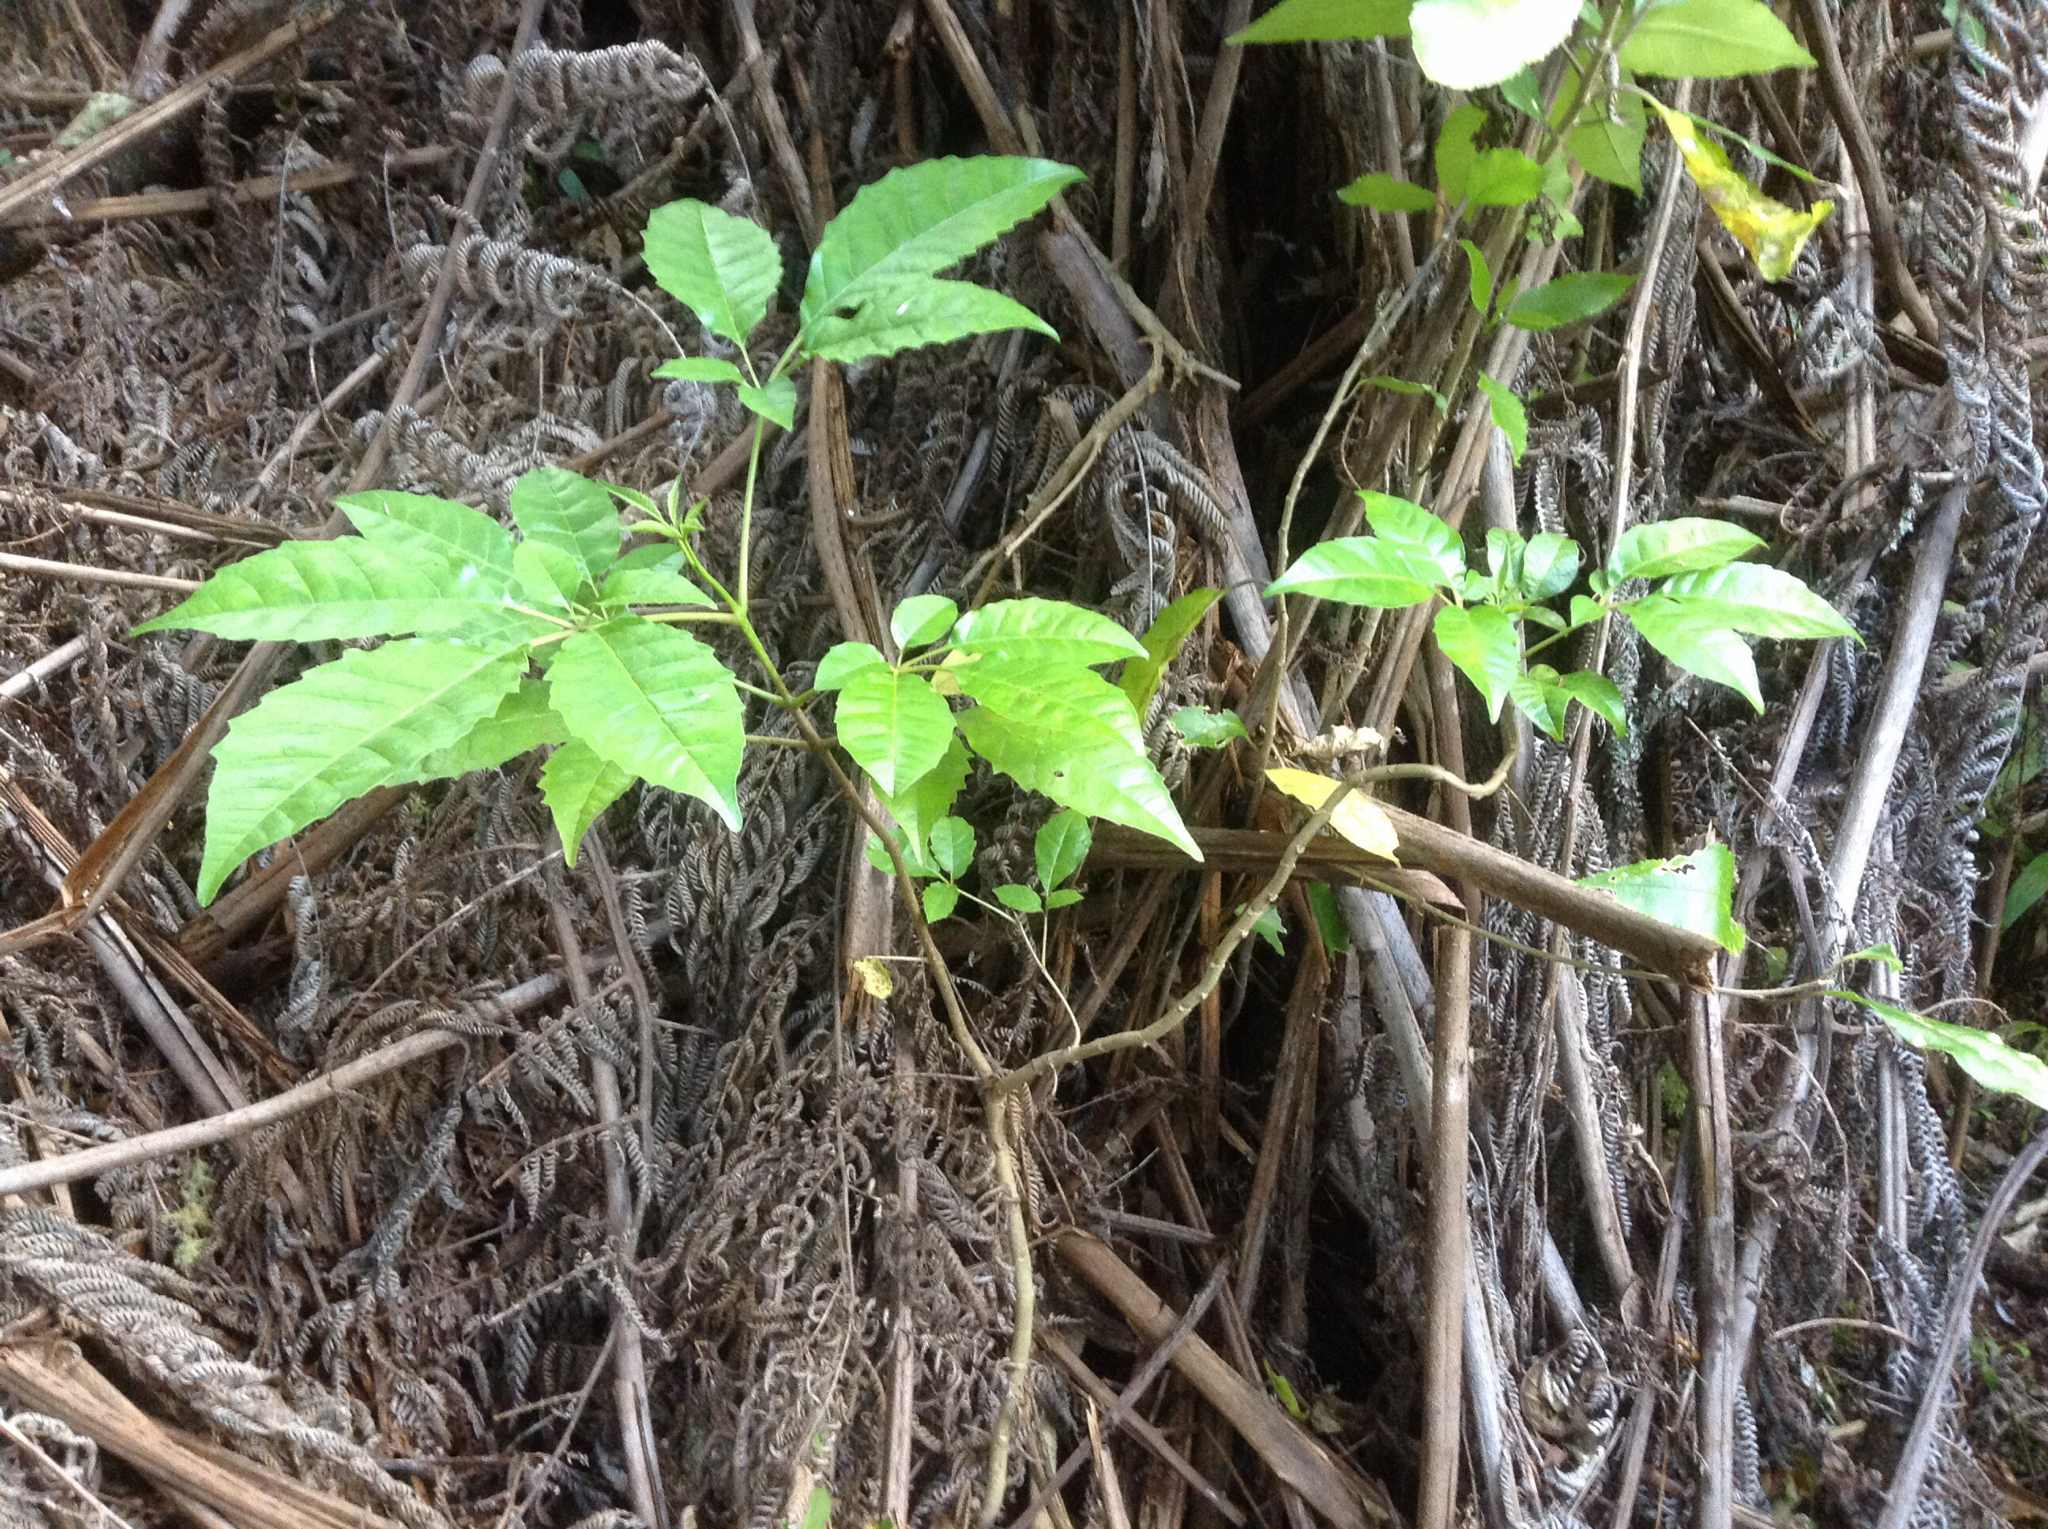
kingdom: Plantae
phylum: Tracheophyta
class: Magnoliopsida
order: Lamiales
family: Lamiaceae
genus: Vitex
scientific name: Vitex lucens
